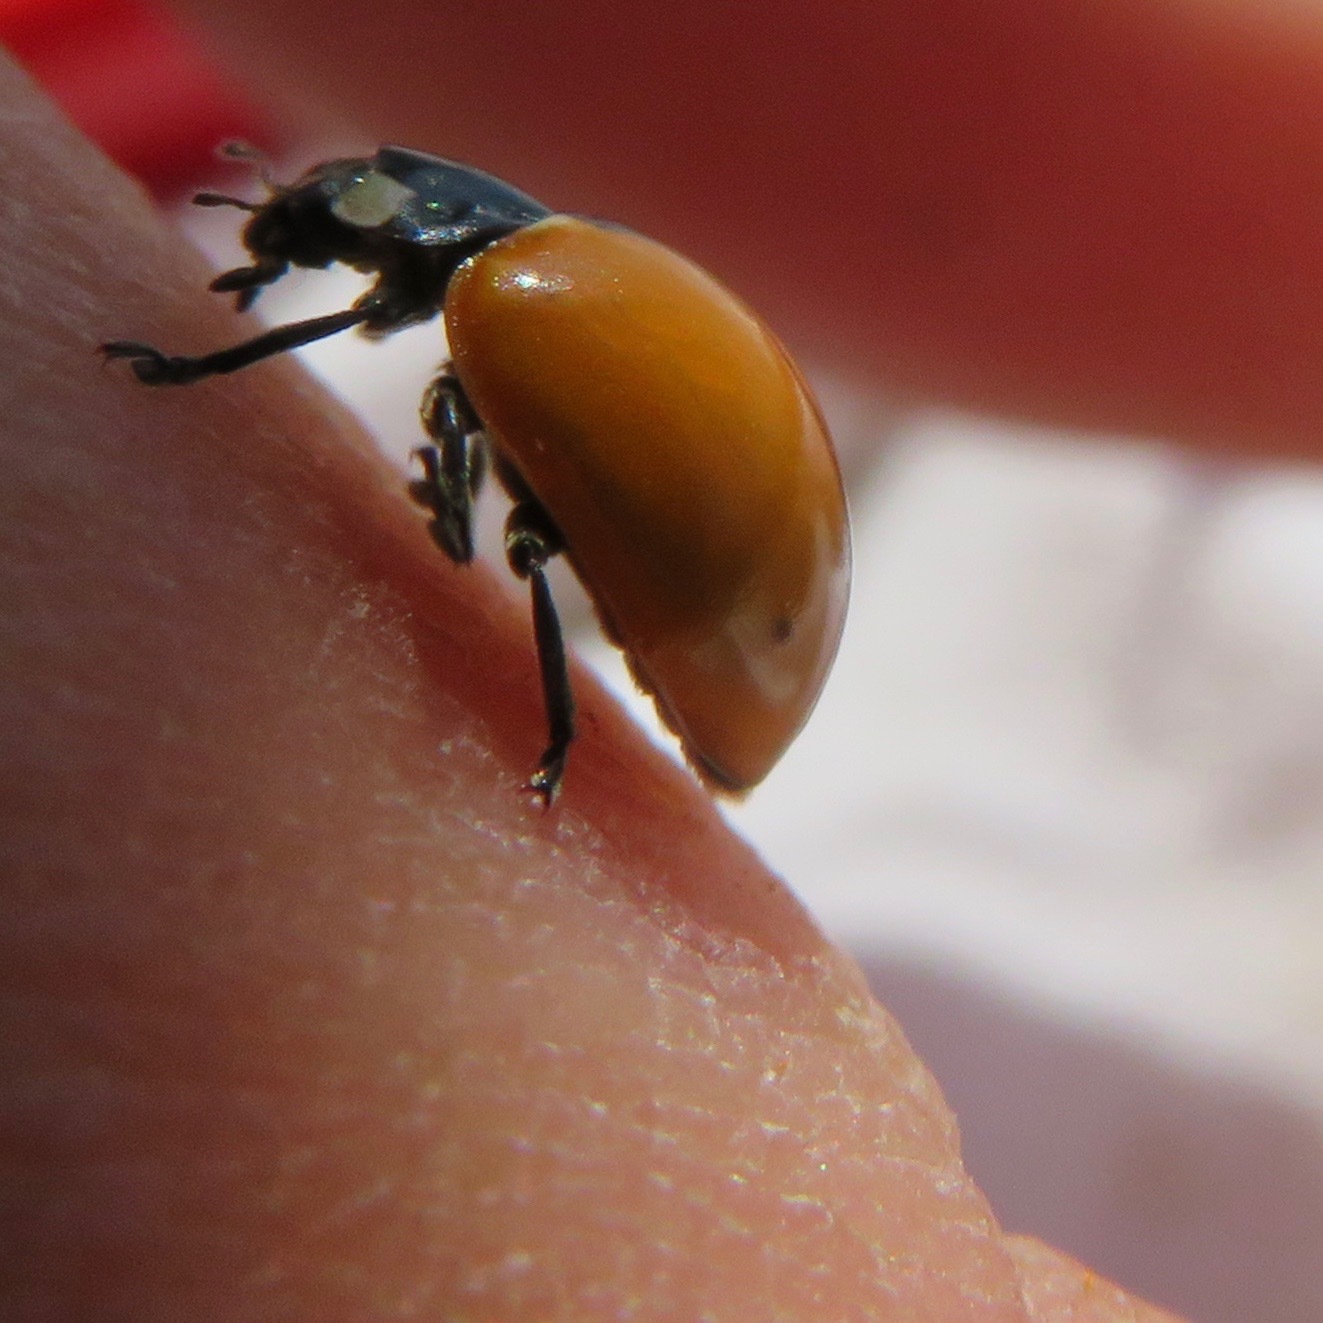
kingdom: Animalia
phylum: Arthropoda
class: Insecta
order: Coleoptera
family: Coccinellidae
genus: Coccinella
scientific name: Coccinella californica
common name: Lady beetle
